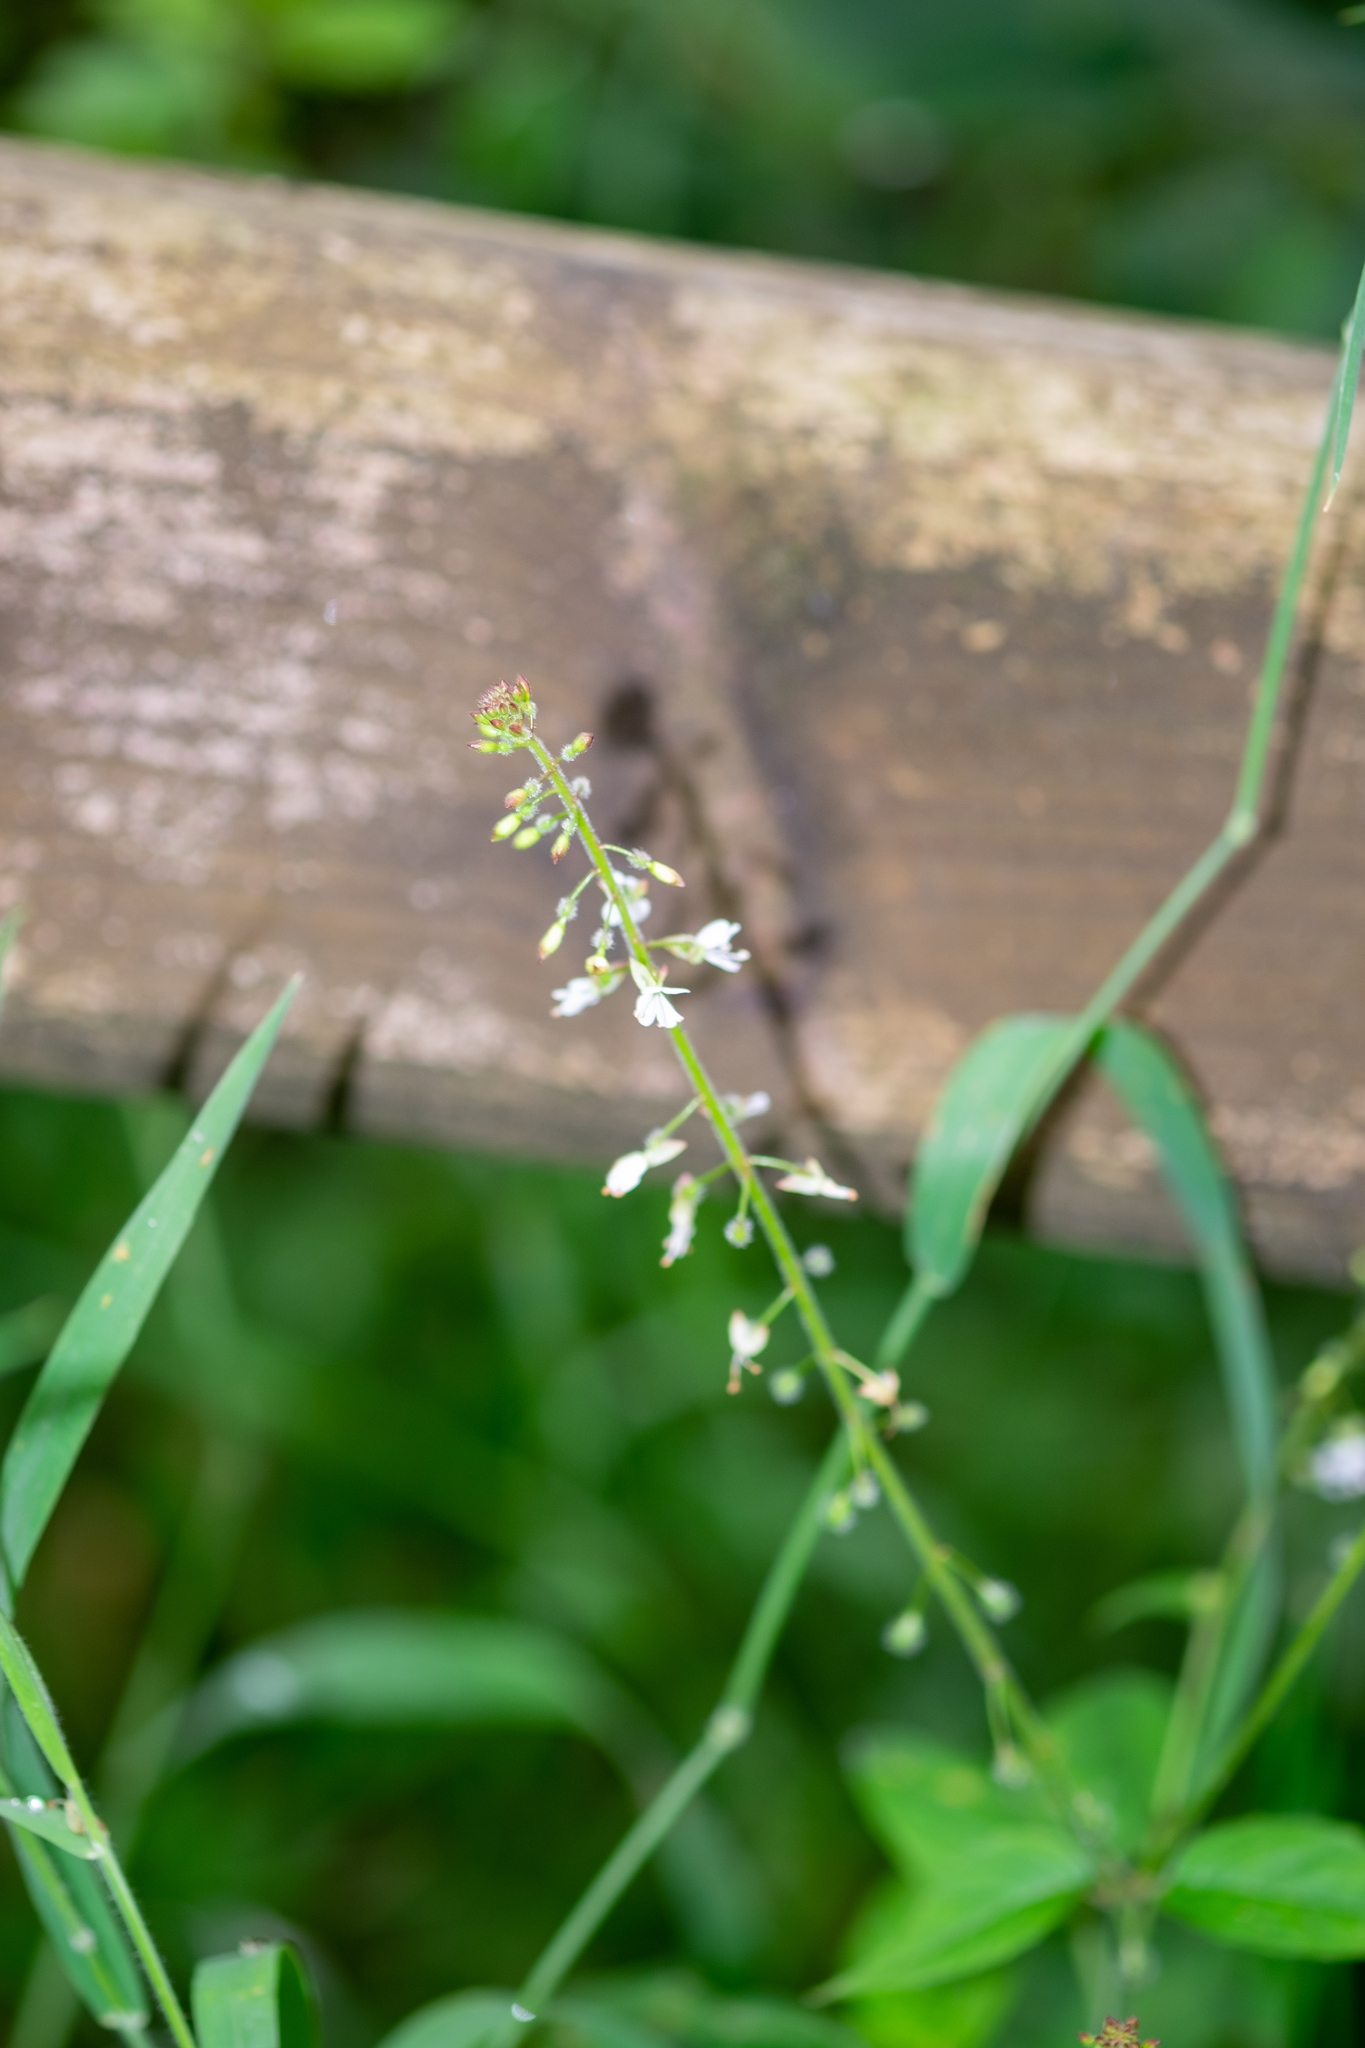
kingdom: Plantae
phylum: Tracheophyta
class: Magnoliopsida
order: Myrtales
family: Onagraceae
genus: Circaea
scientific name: Circaea lutetiana
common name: Enchanter's-nightshade
